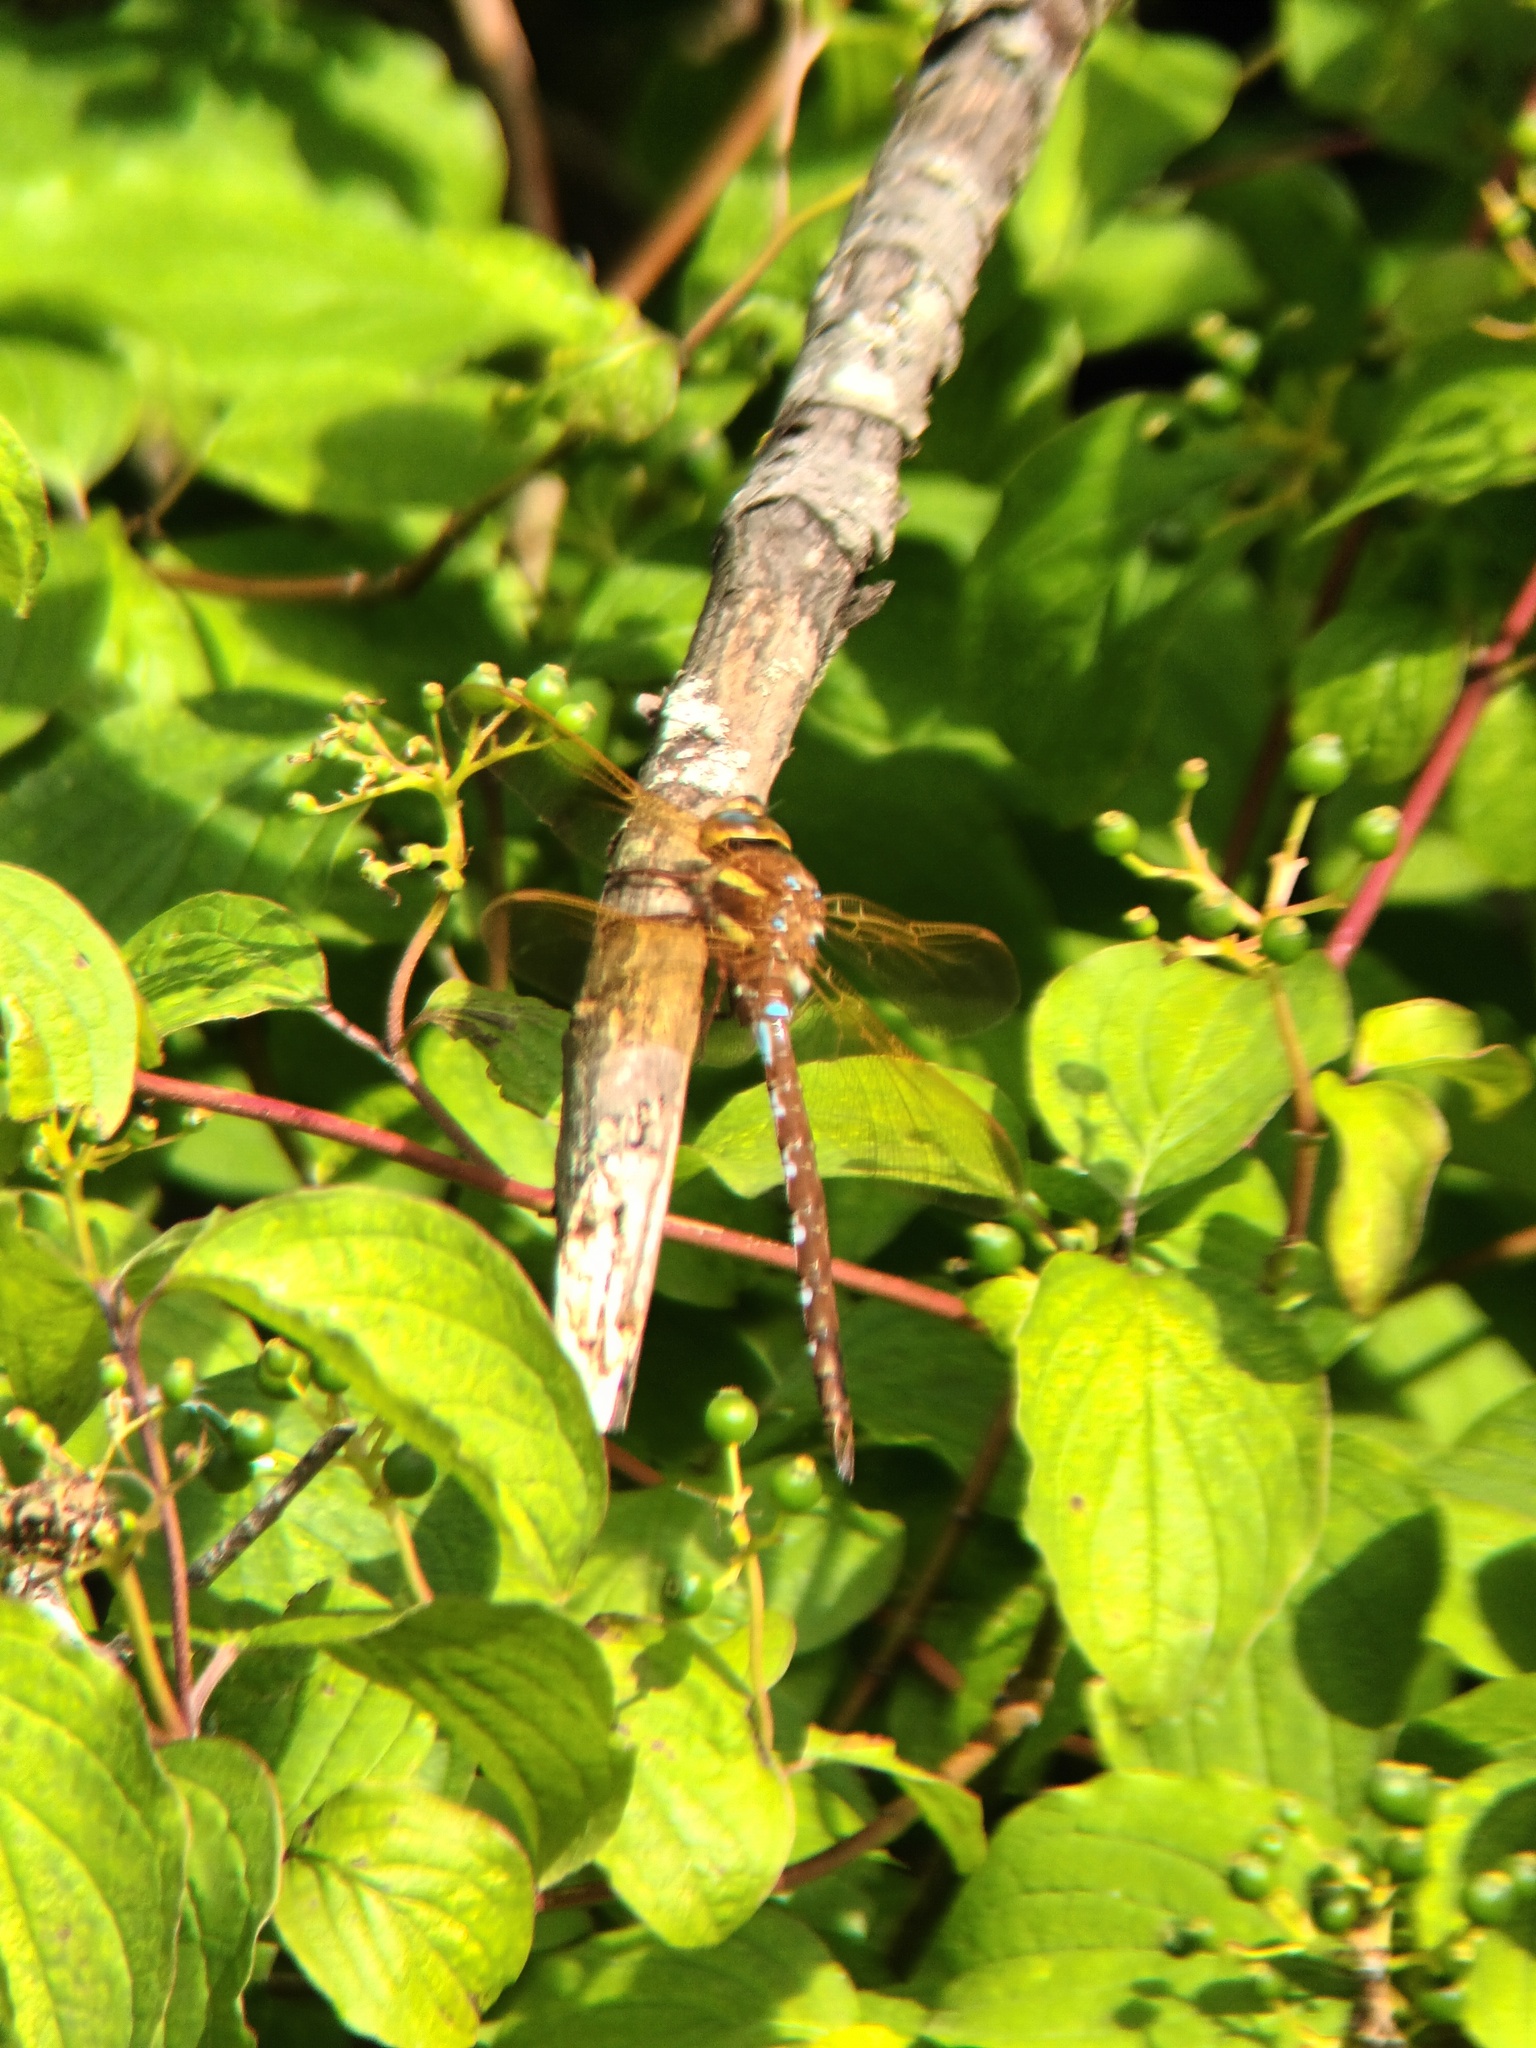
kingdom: Animalia
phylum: Arthropoda
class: Insecta
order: Odonata
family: Aeshnidae
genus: Aeshna
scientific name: Aeshna grandis
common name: Brown hawker
